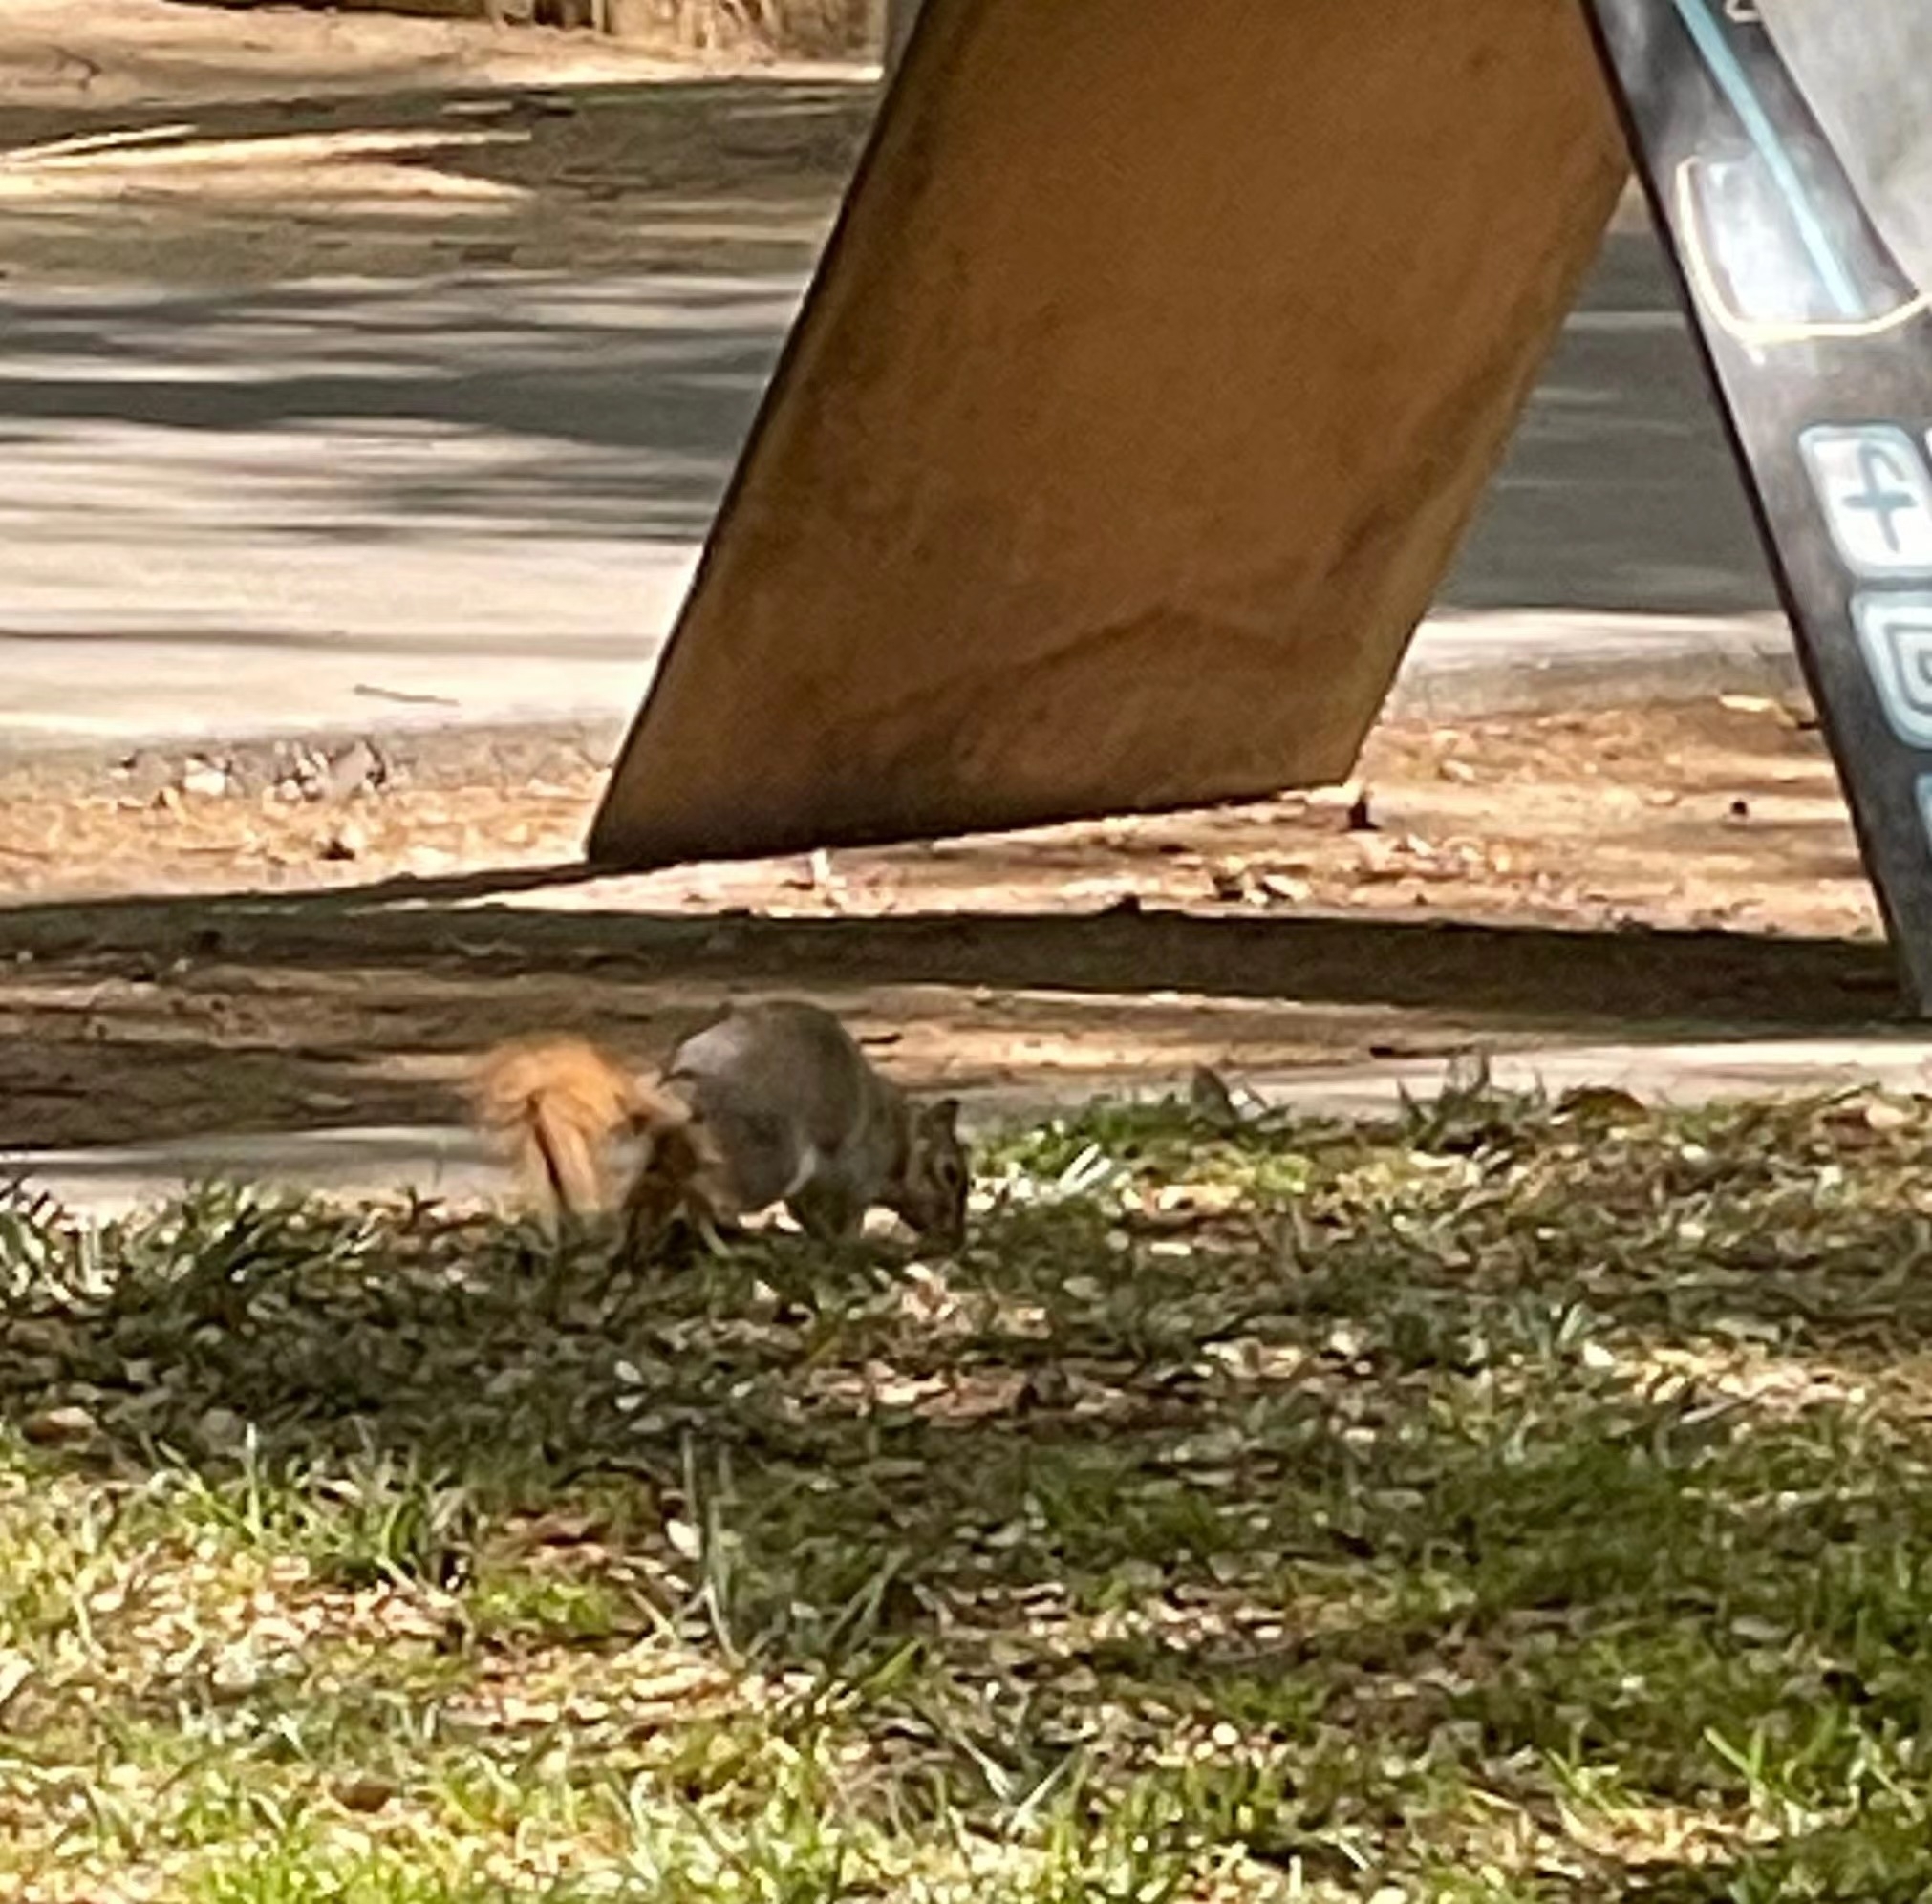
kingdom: Animalia
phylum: Chordata
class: Mammalia
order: Rodentia
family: Sciuridae
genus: Sciurus
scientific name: Sciurus niger
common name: Fox squirrel
